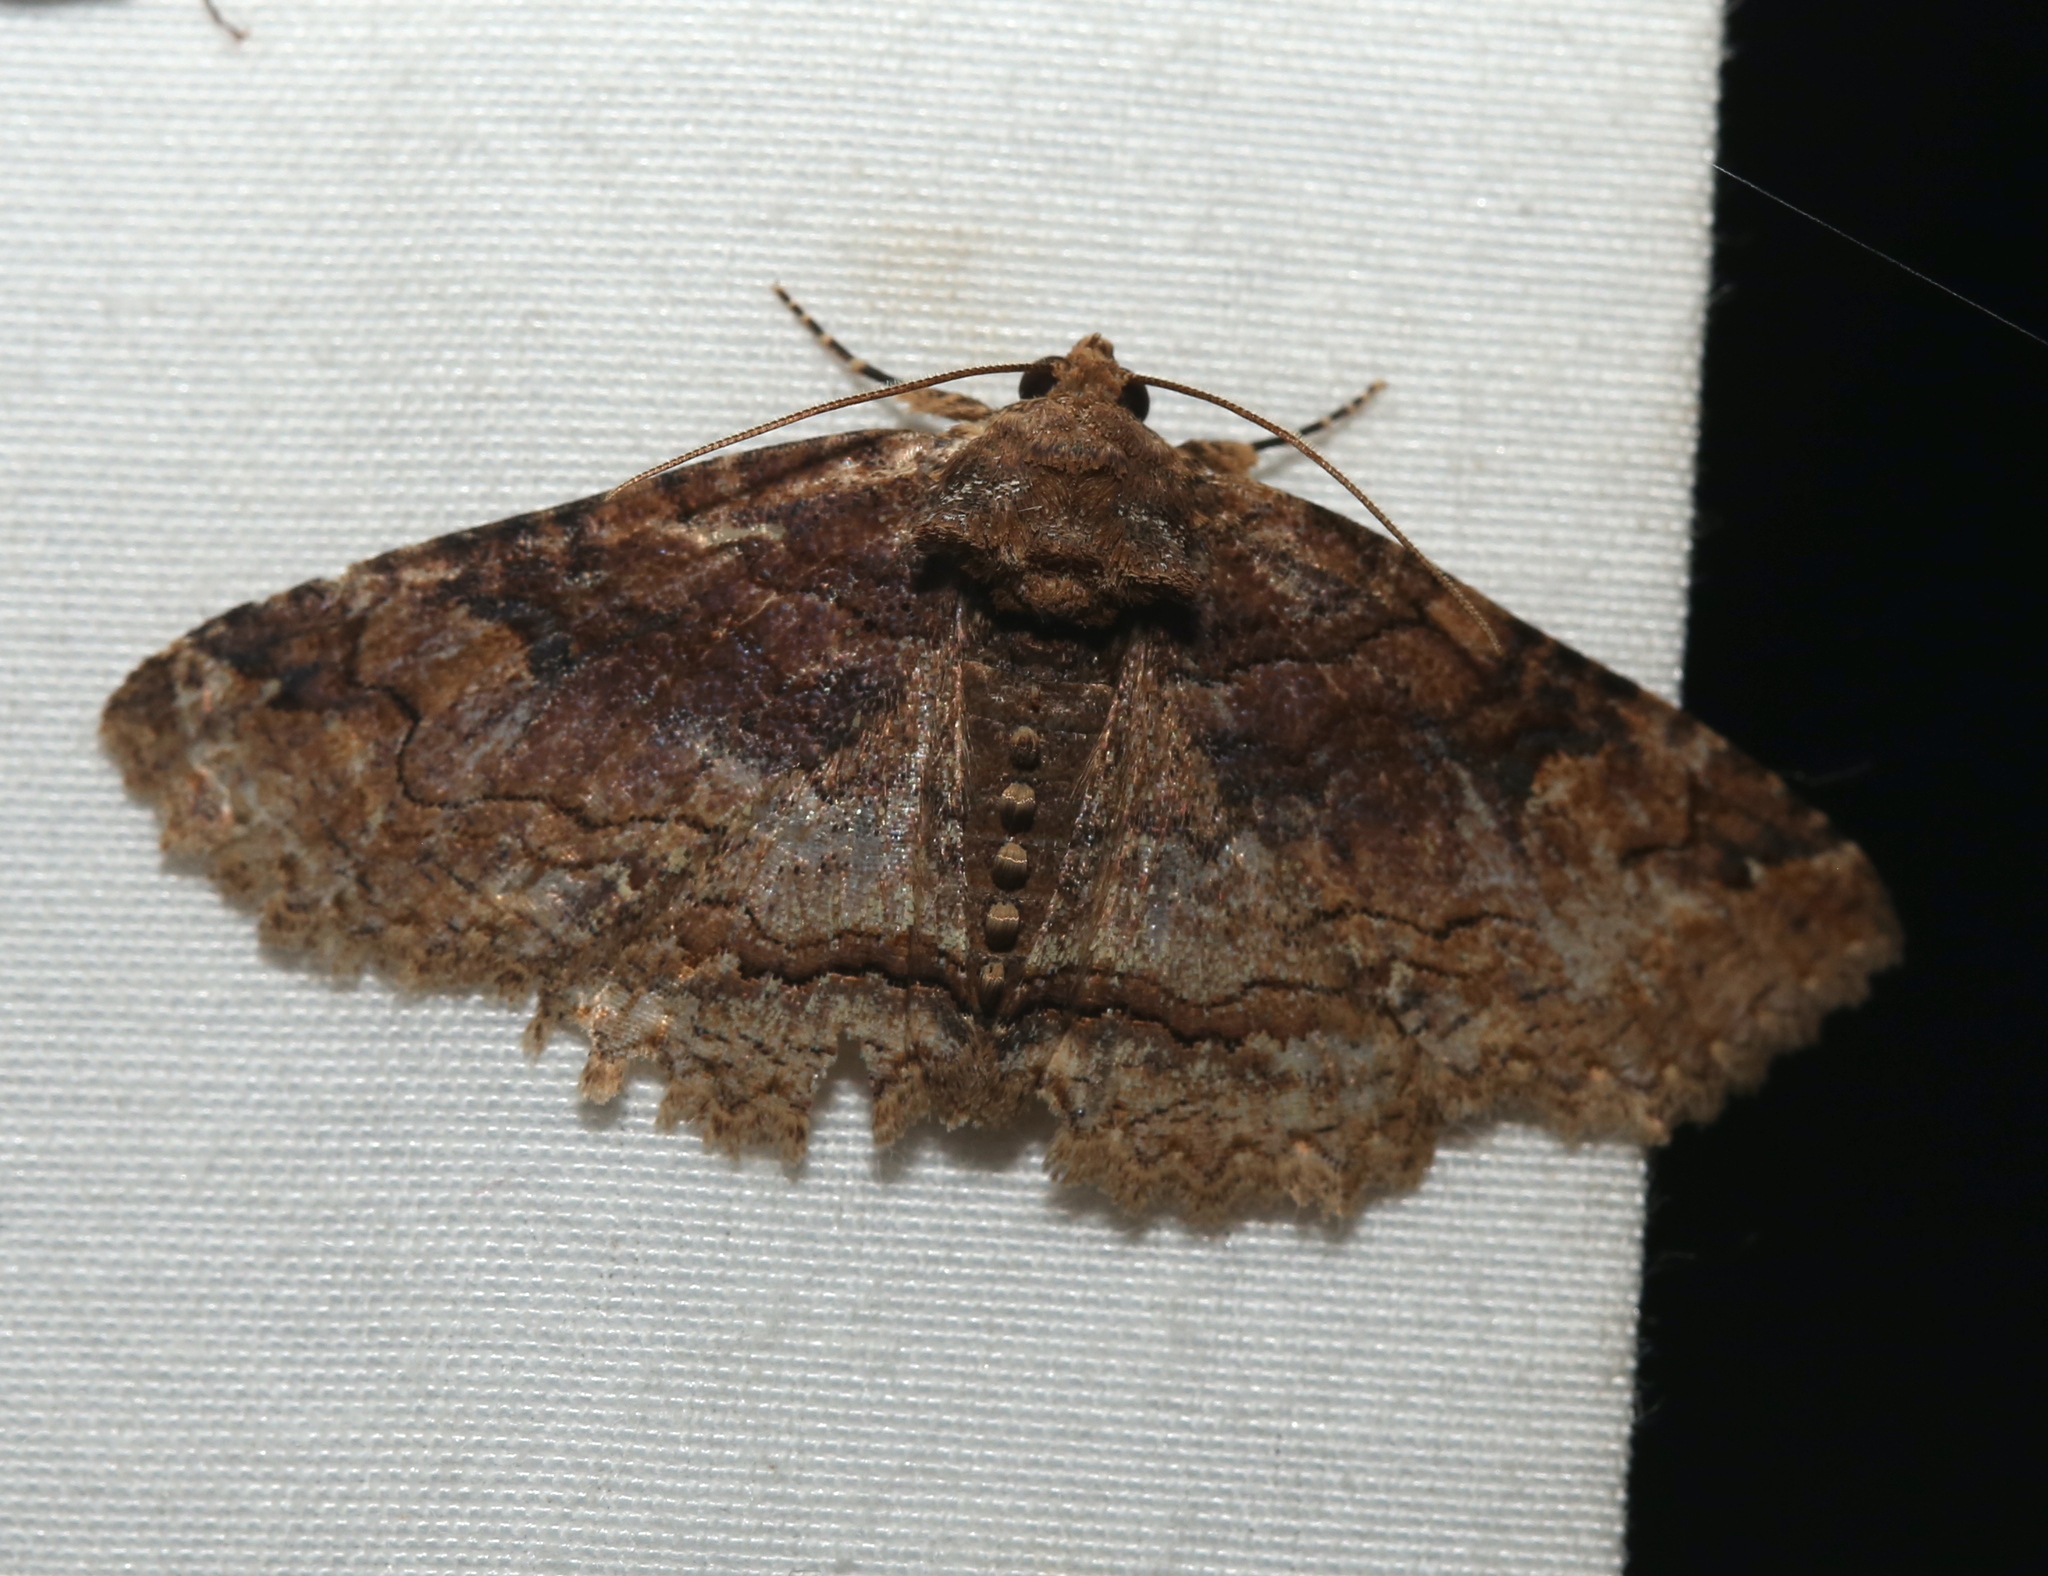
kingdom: Animalia
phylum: Arthropoda
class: Insecta
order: Lepidoptera
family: Erebidae
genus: Zale
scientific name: Zale phaeocapna
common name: Hazel zale moth
